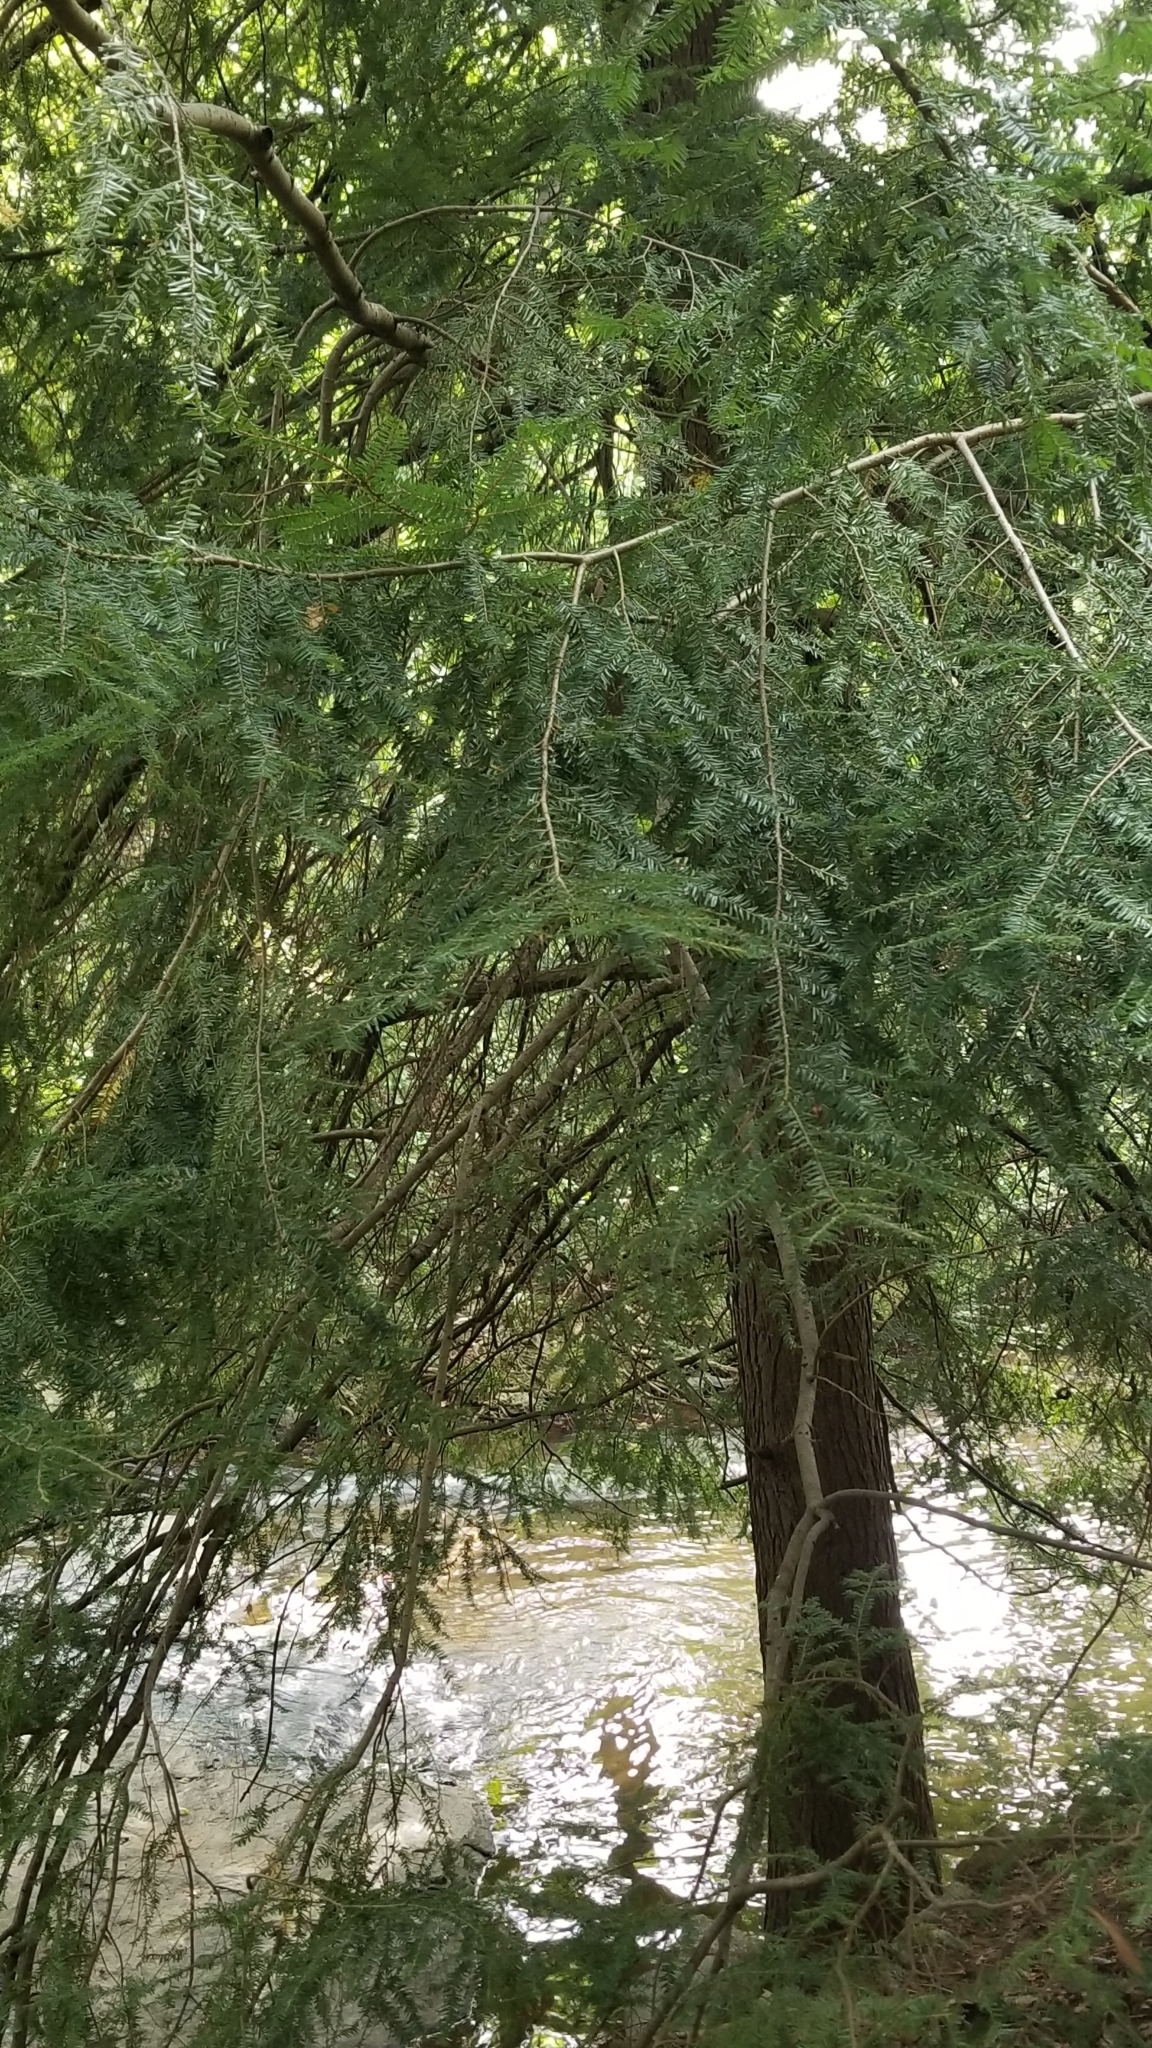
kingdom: Plantae
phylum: Tracheophyta
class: Pinopsida
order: Pinales
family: Pinaceae
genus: Tsuga
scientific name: Tsuga canadensis
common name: Eastern hemlock
